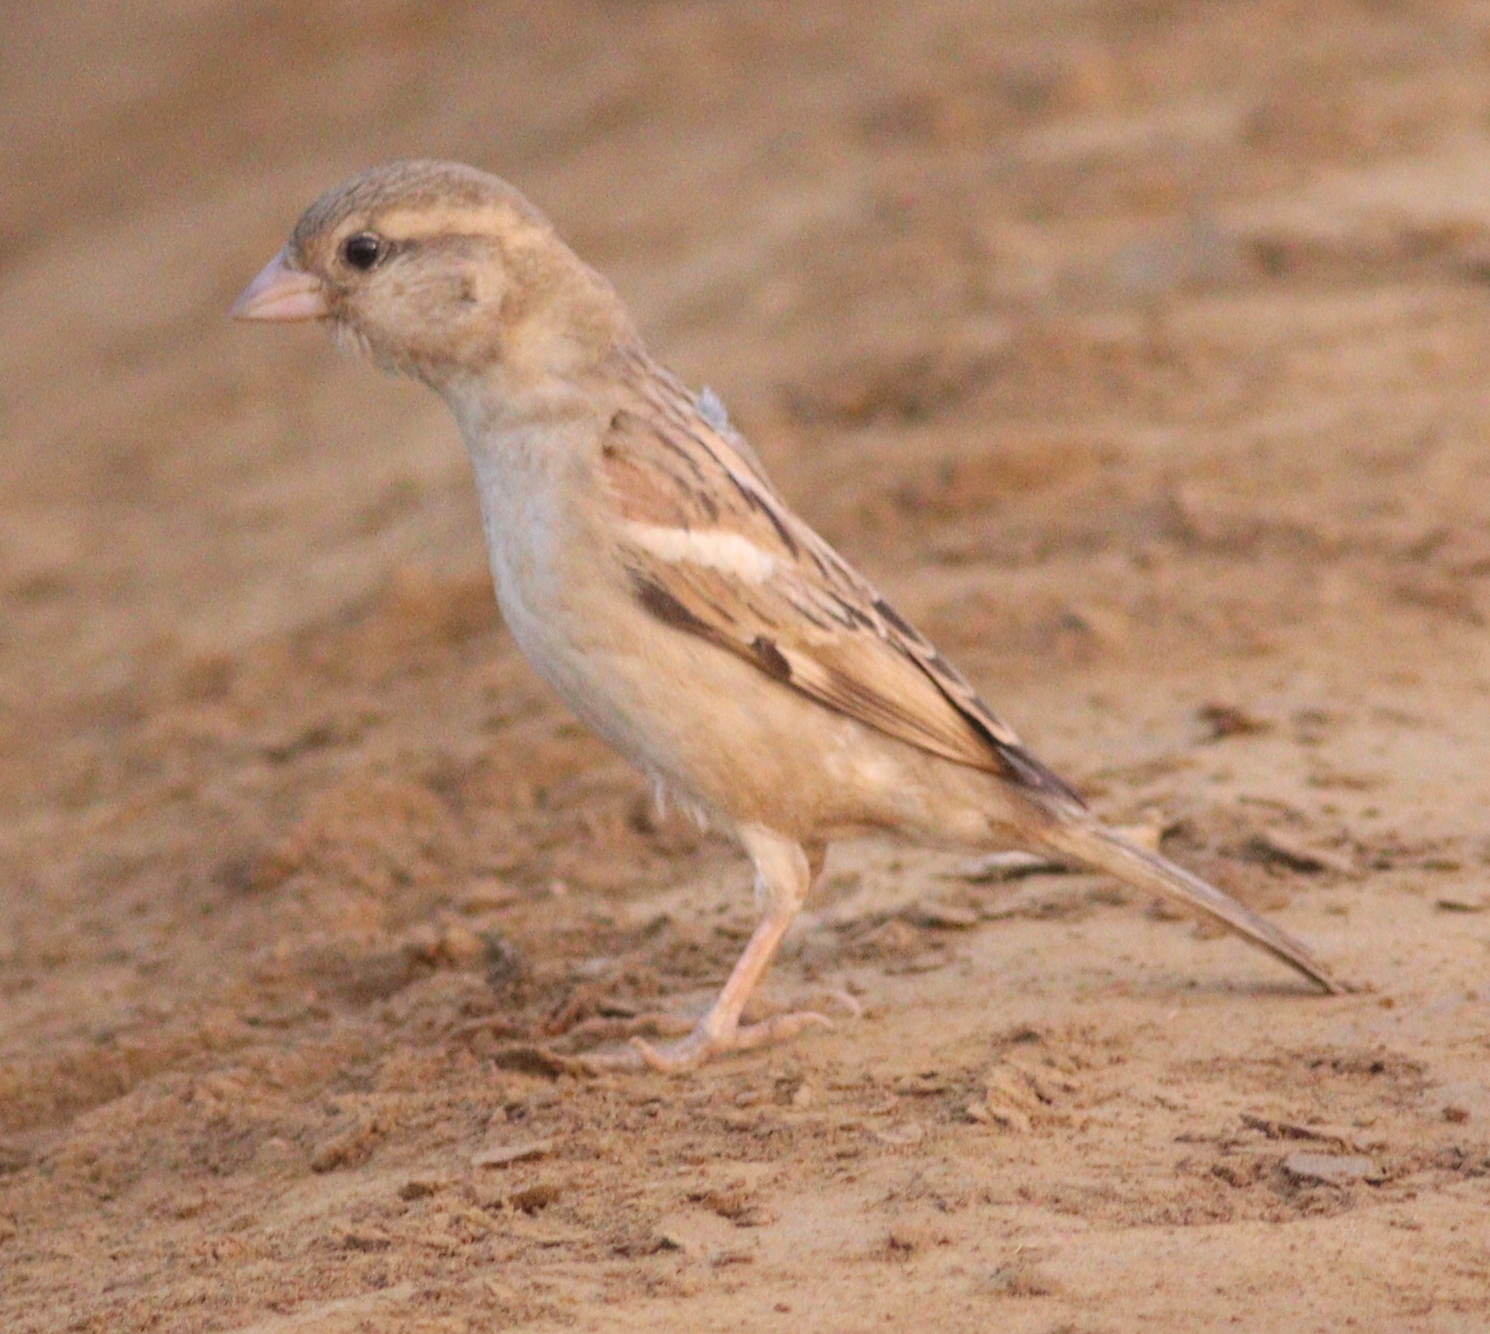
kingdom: Animalia
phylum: Chordata
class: Aves
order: Passeriformes
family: Passeridae
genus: Passer
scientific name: Passer domesticus
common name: House sparrow
